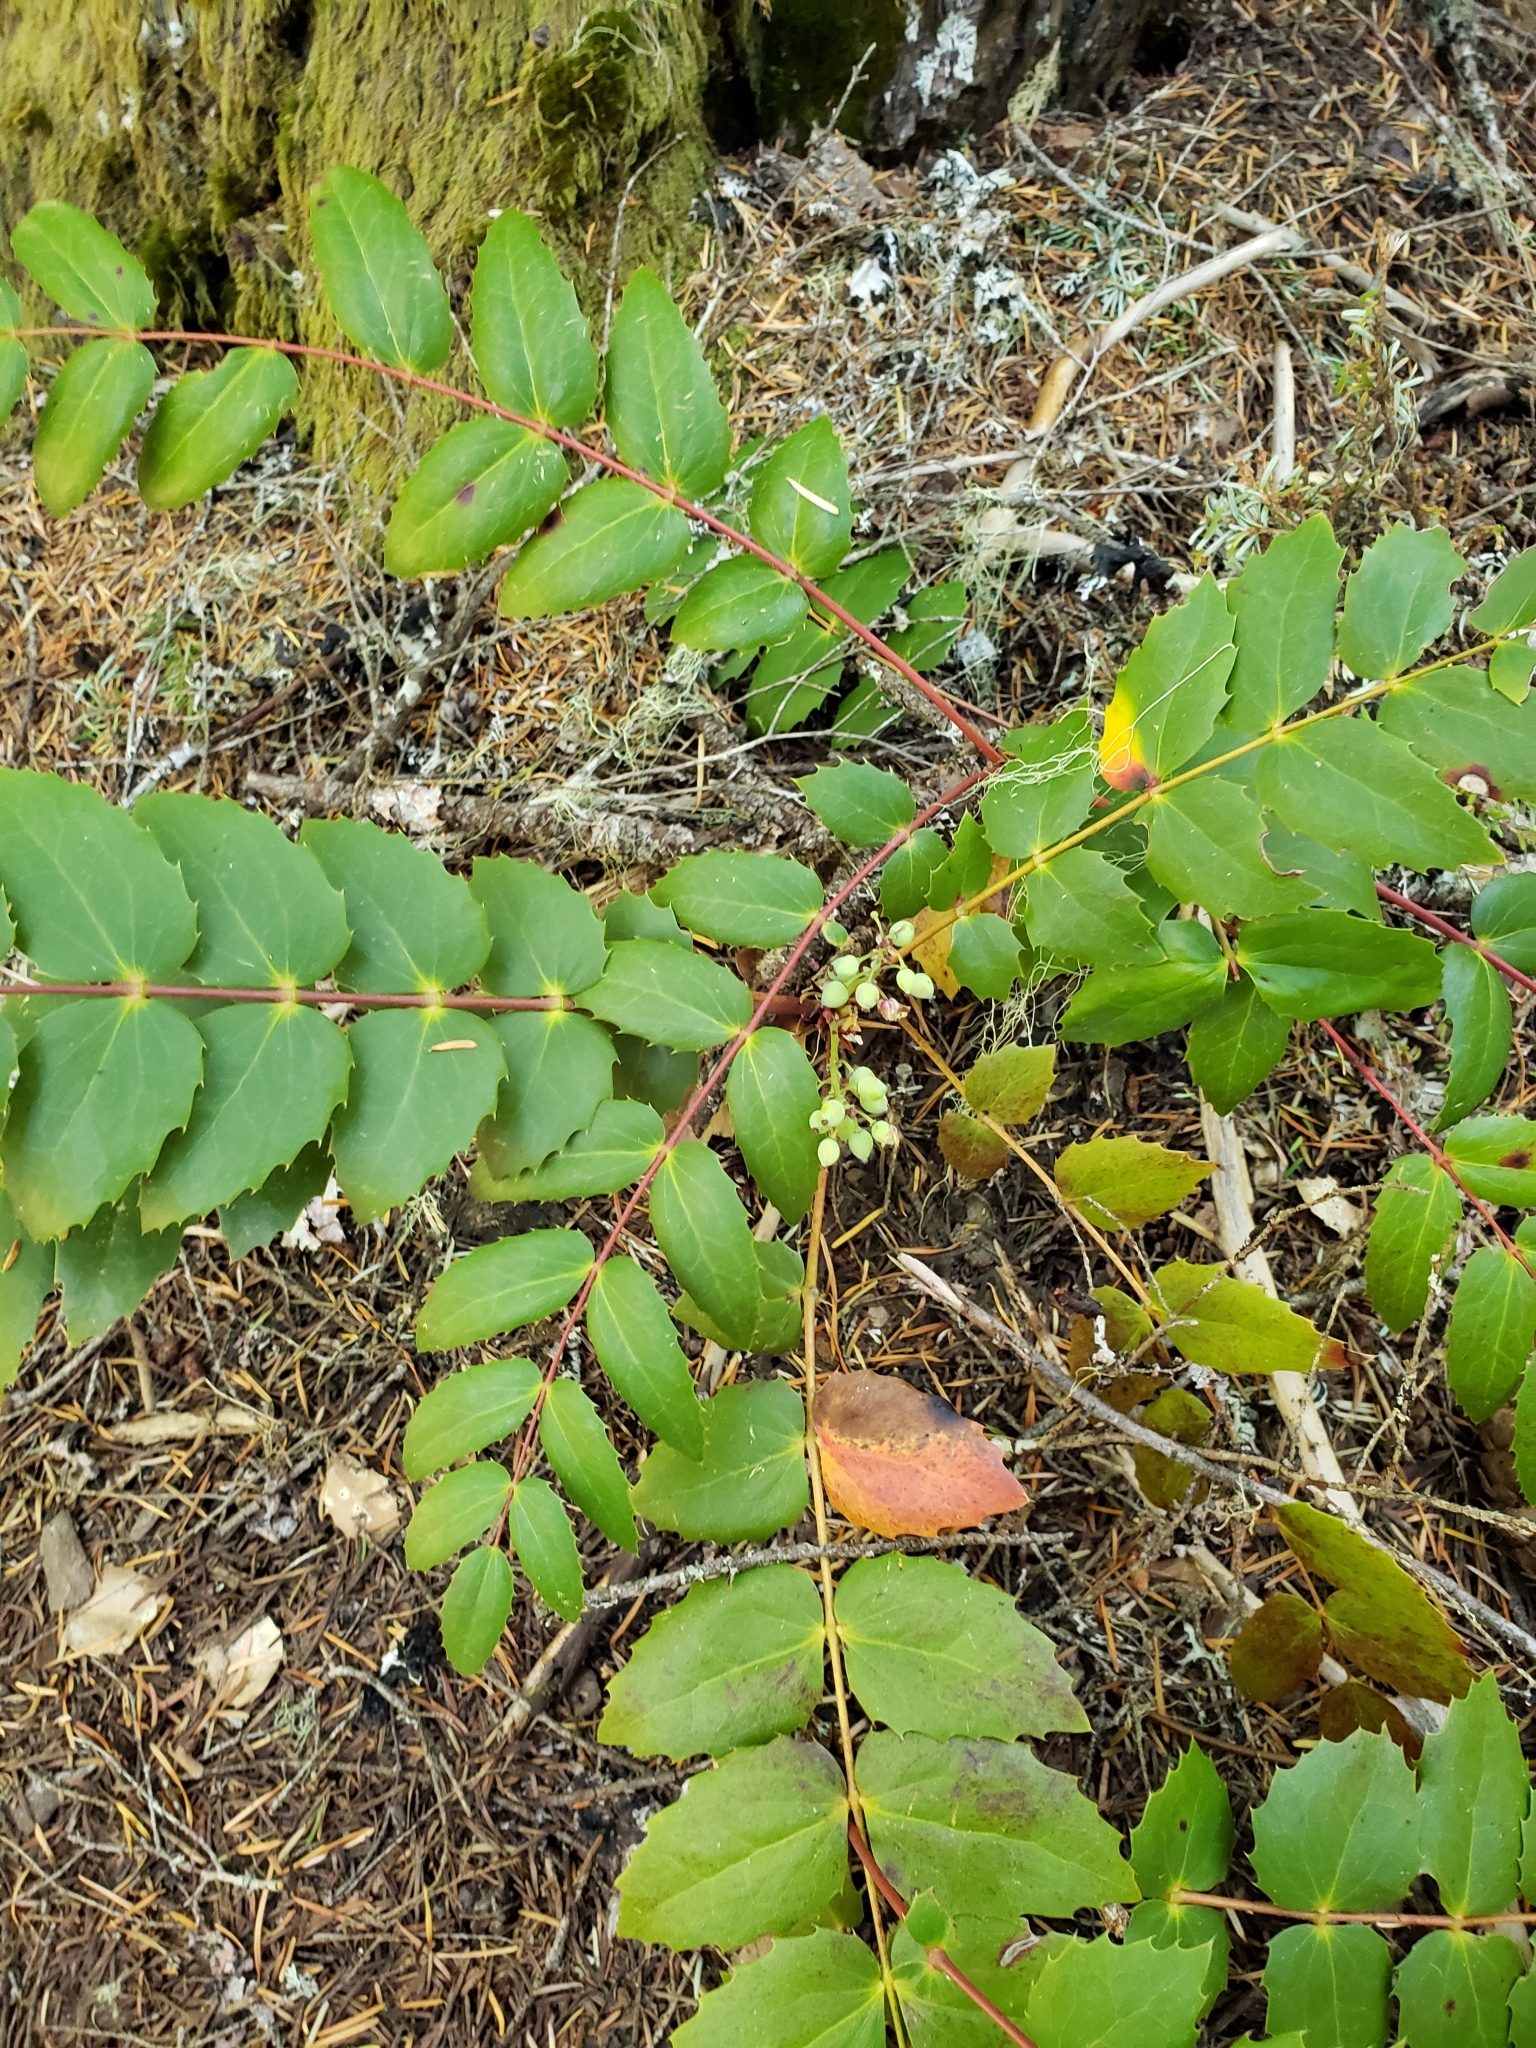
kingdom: Plantae
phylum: Tracheophyta
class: Magnoliopsida
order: Ranunculales
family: Berberidaceae
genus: Mahonia
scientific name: Mahonia nervosa
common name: Cascade oregon-grape
